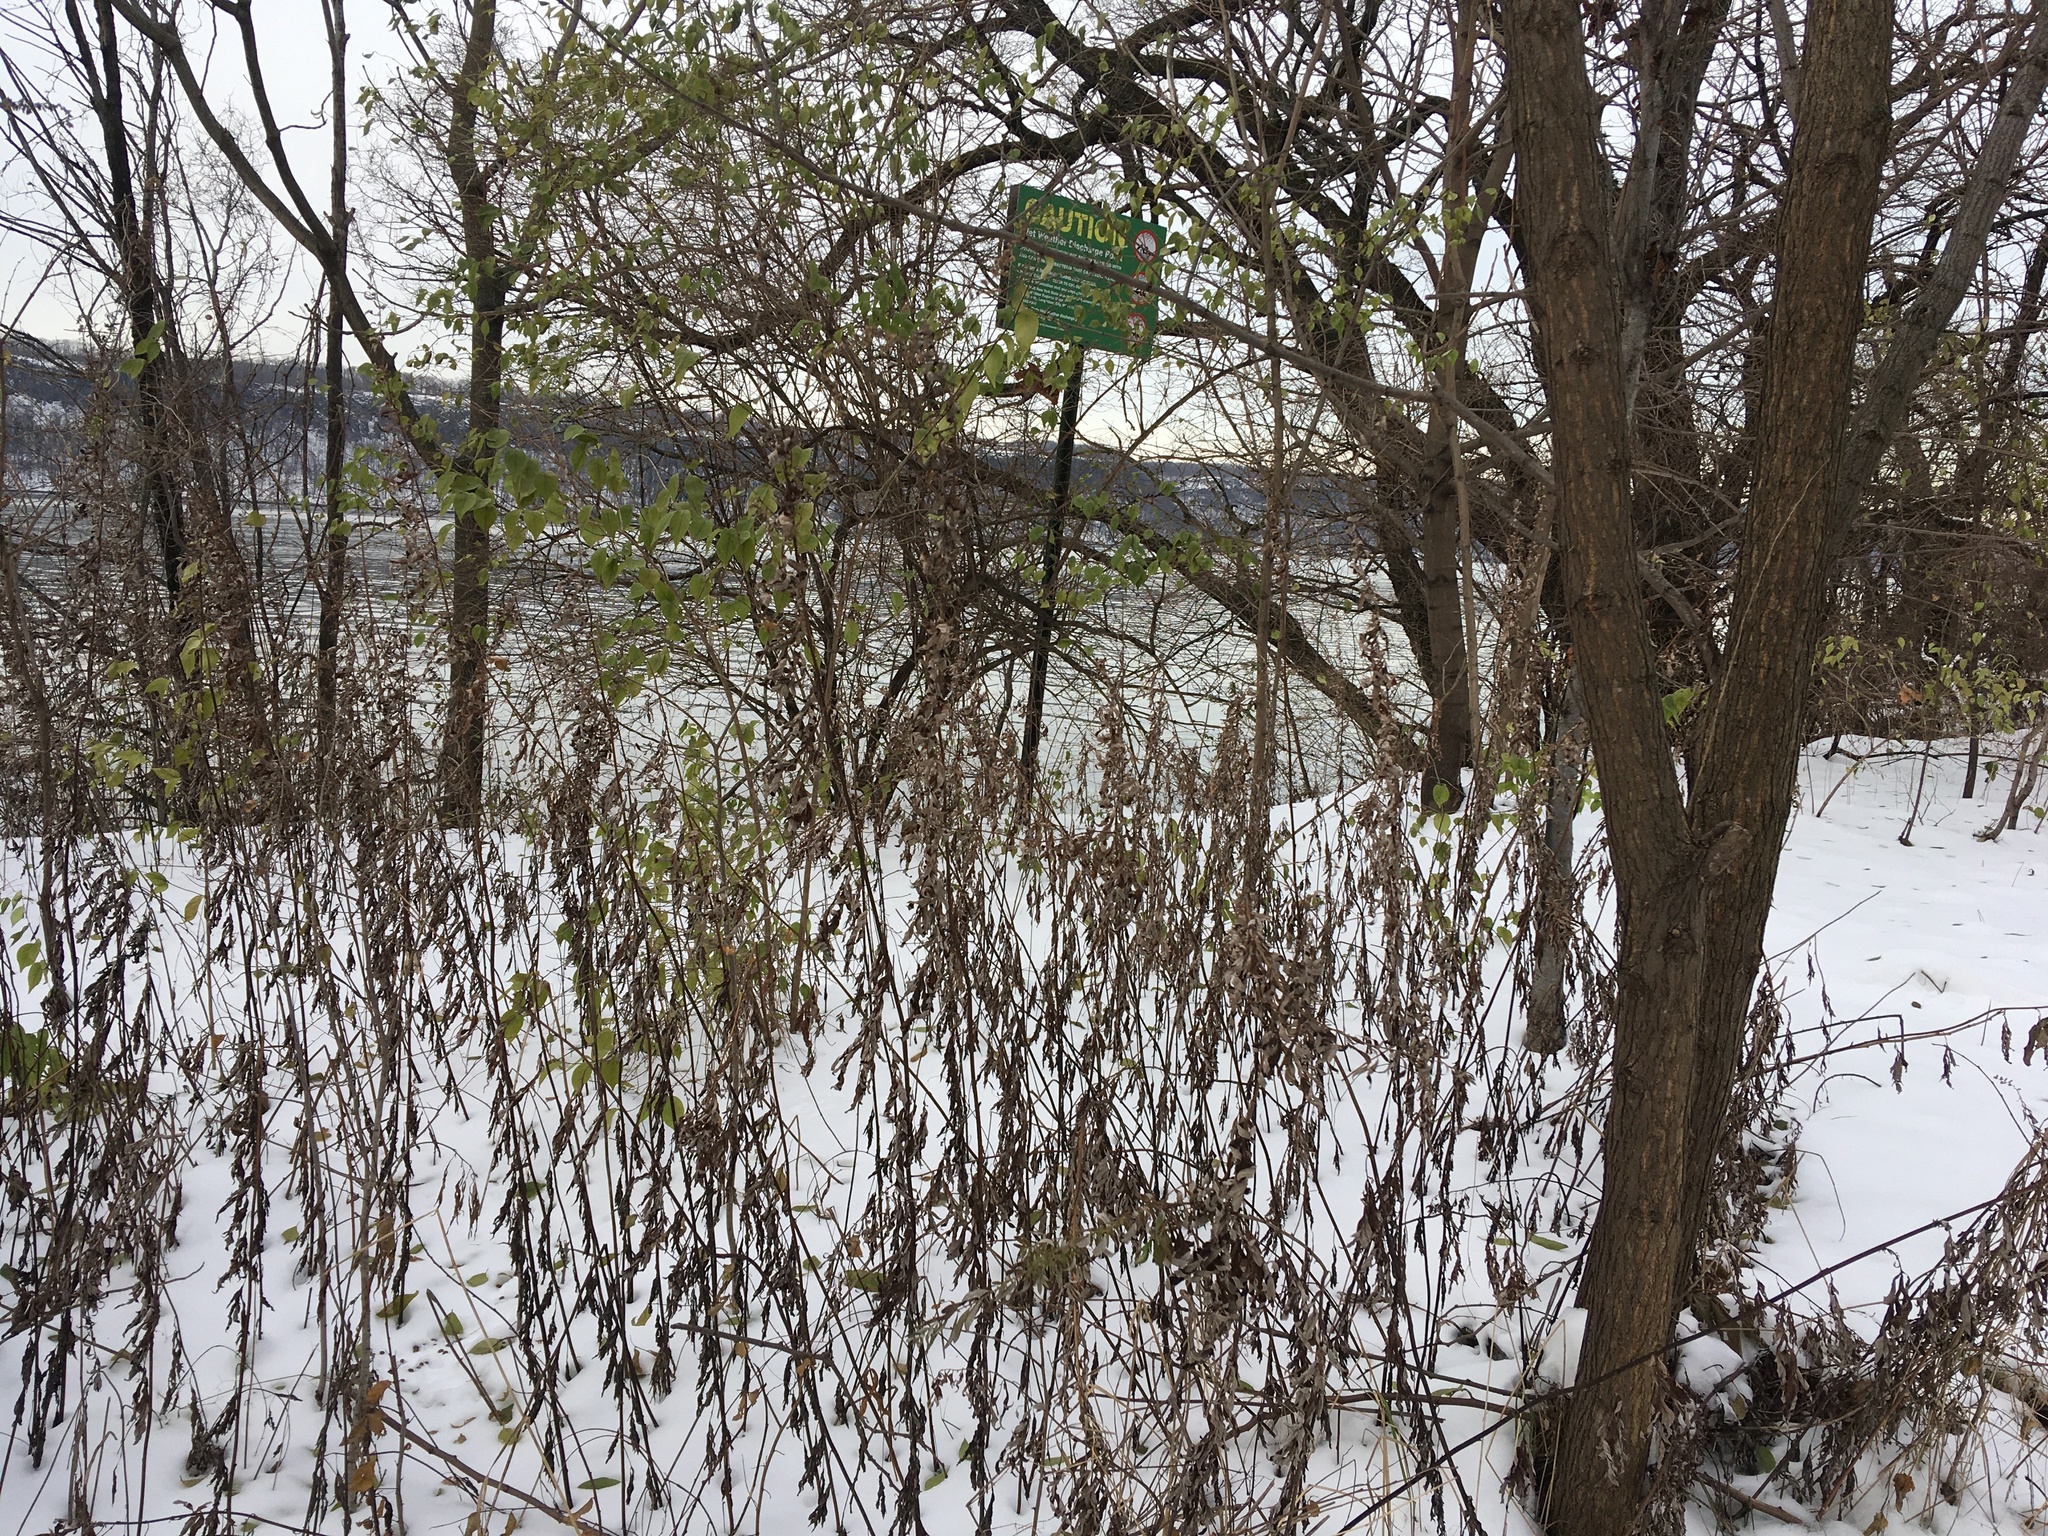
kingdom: Plantae
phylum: Tracheophyta
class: Magnoliopsida
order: Asterales
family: Asteraceae
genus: Artemisia
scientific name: Artemisia vulgaris
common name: Mugwort
